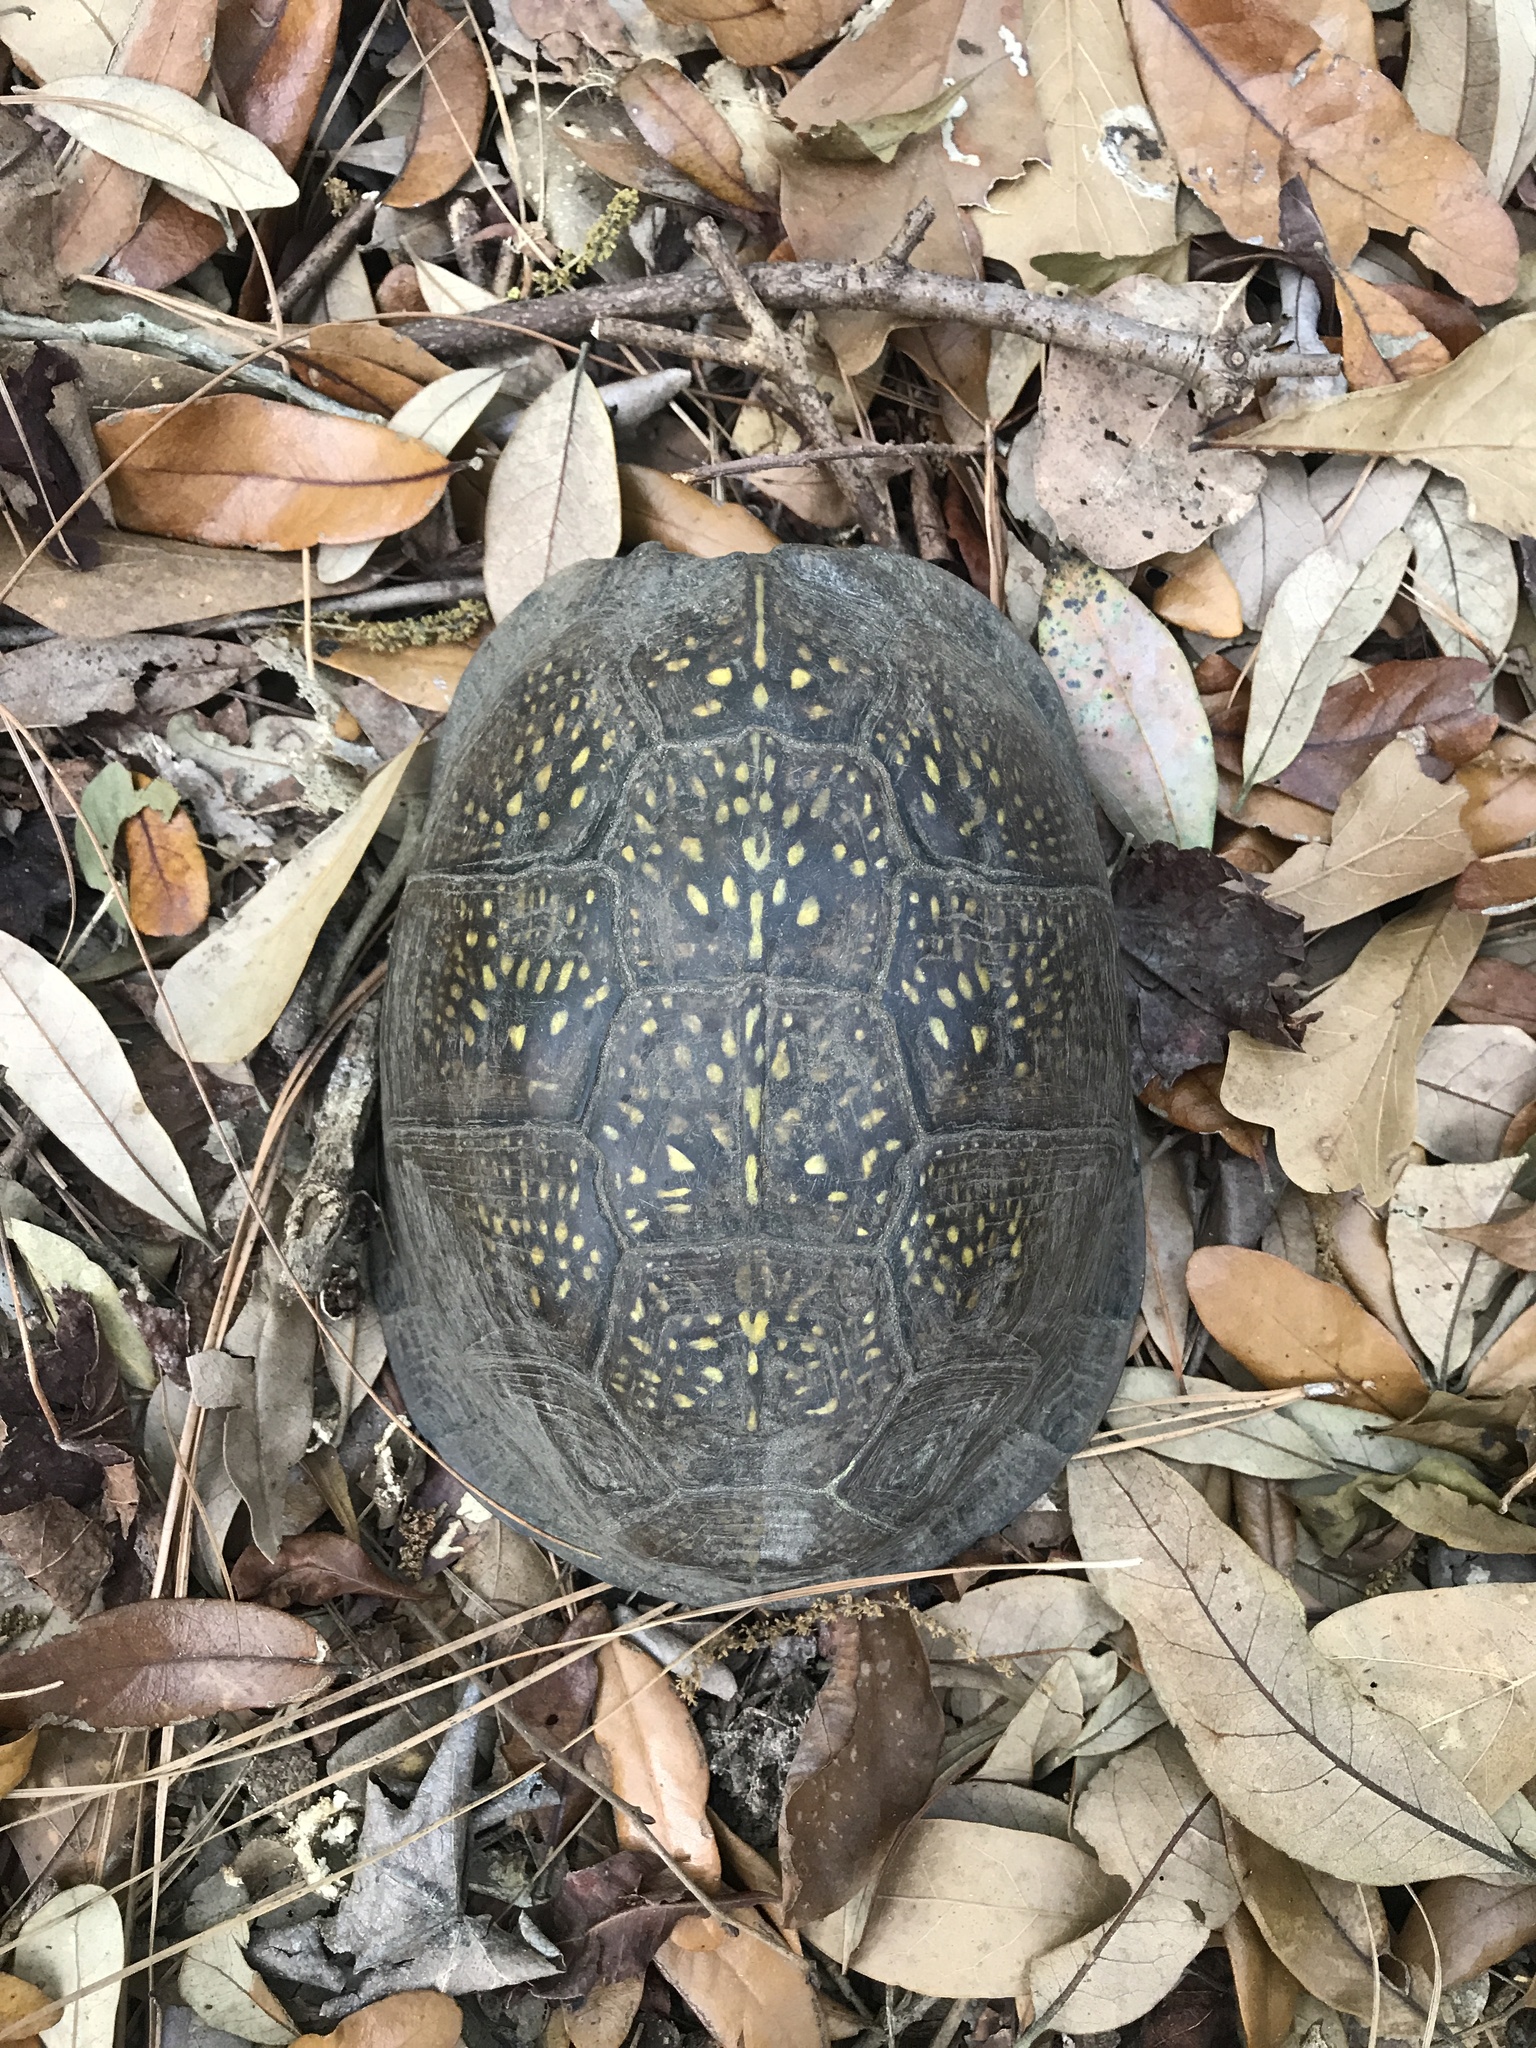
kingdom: Animalia
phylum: Chordata
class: Testudines
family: Emydidae
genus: Terrapene
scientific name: Terrapene carolina
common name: Common box turtle
